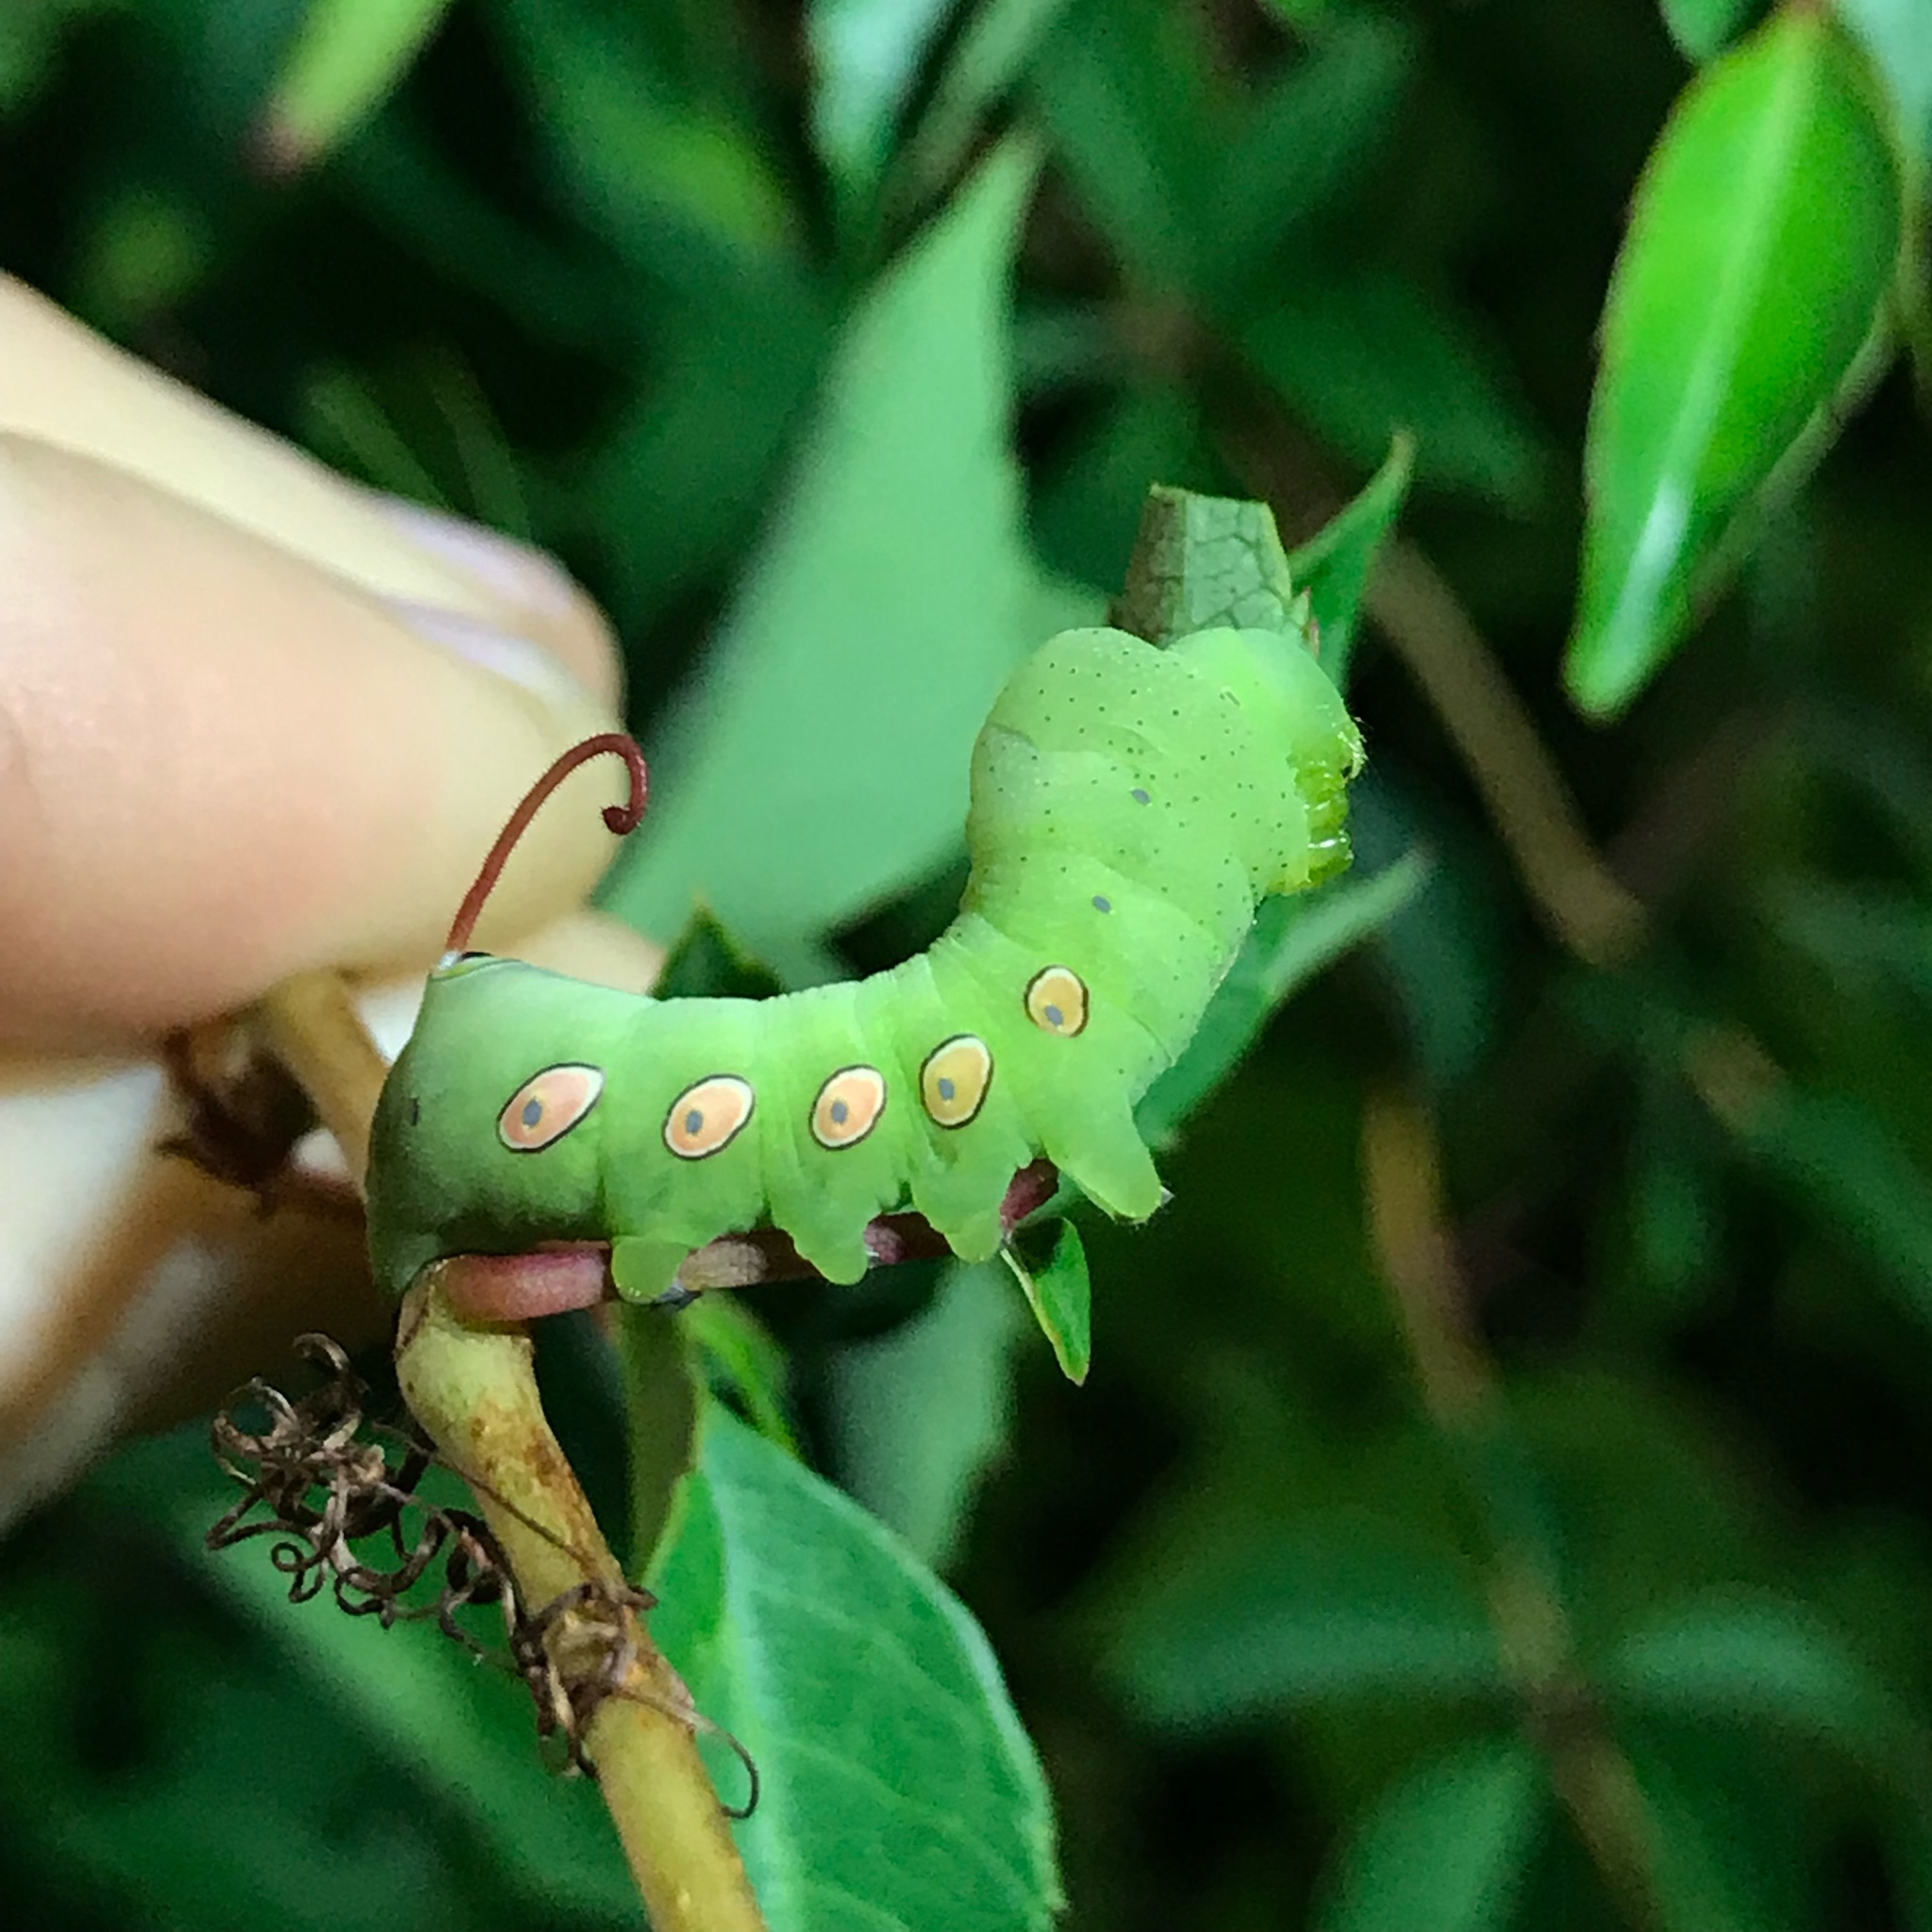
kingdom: Animalia
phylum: Arthropoda
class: Insecta
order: Lepidoptera
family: Sphingidae
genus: Eumorpha
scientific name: Eumorpha pandorus
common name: Pandora sphinx
